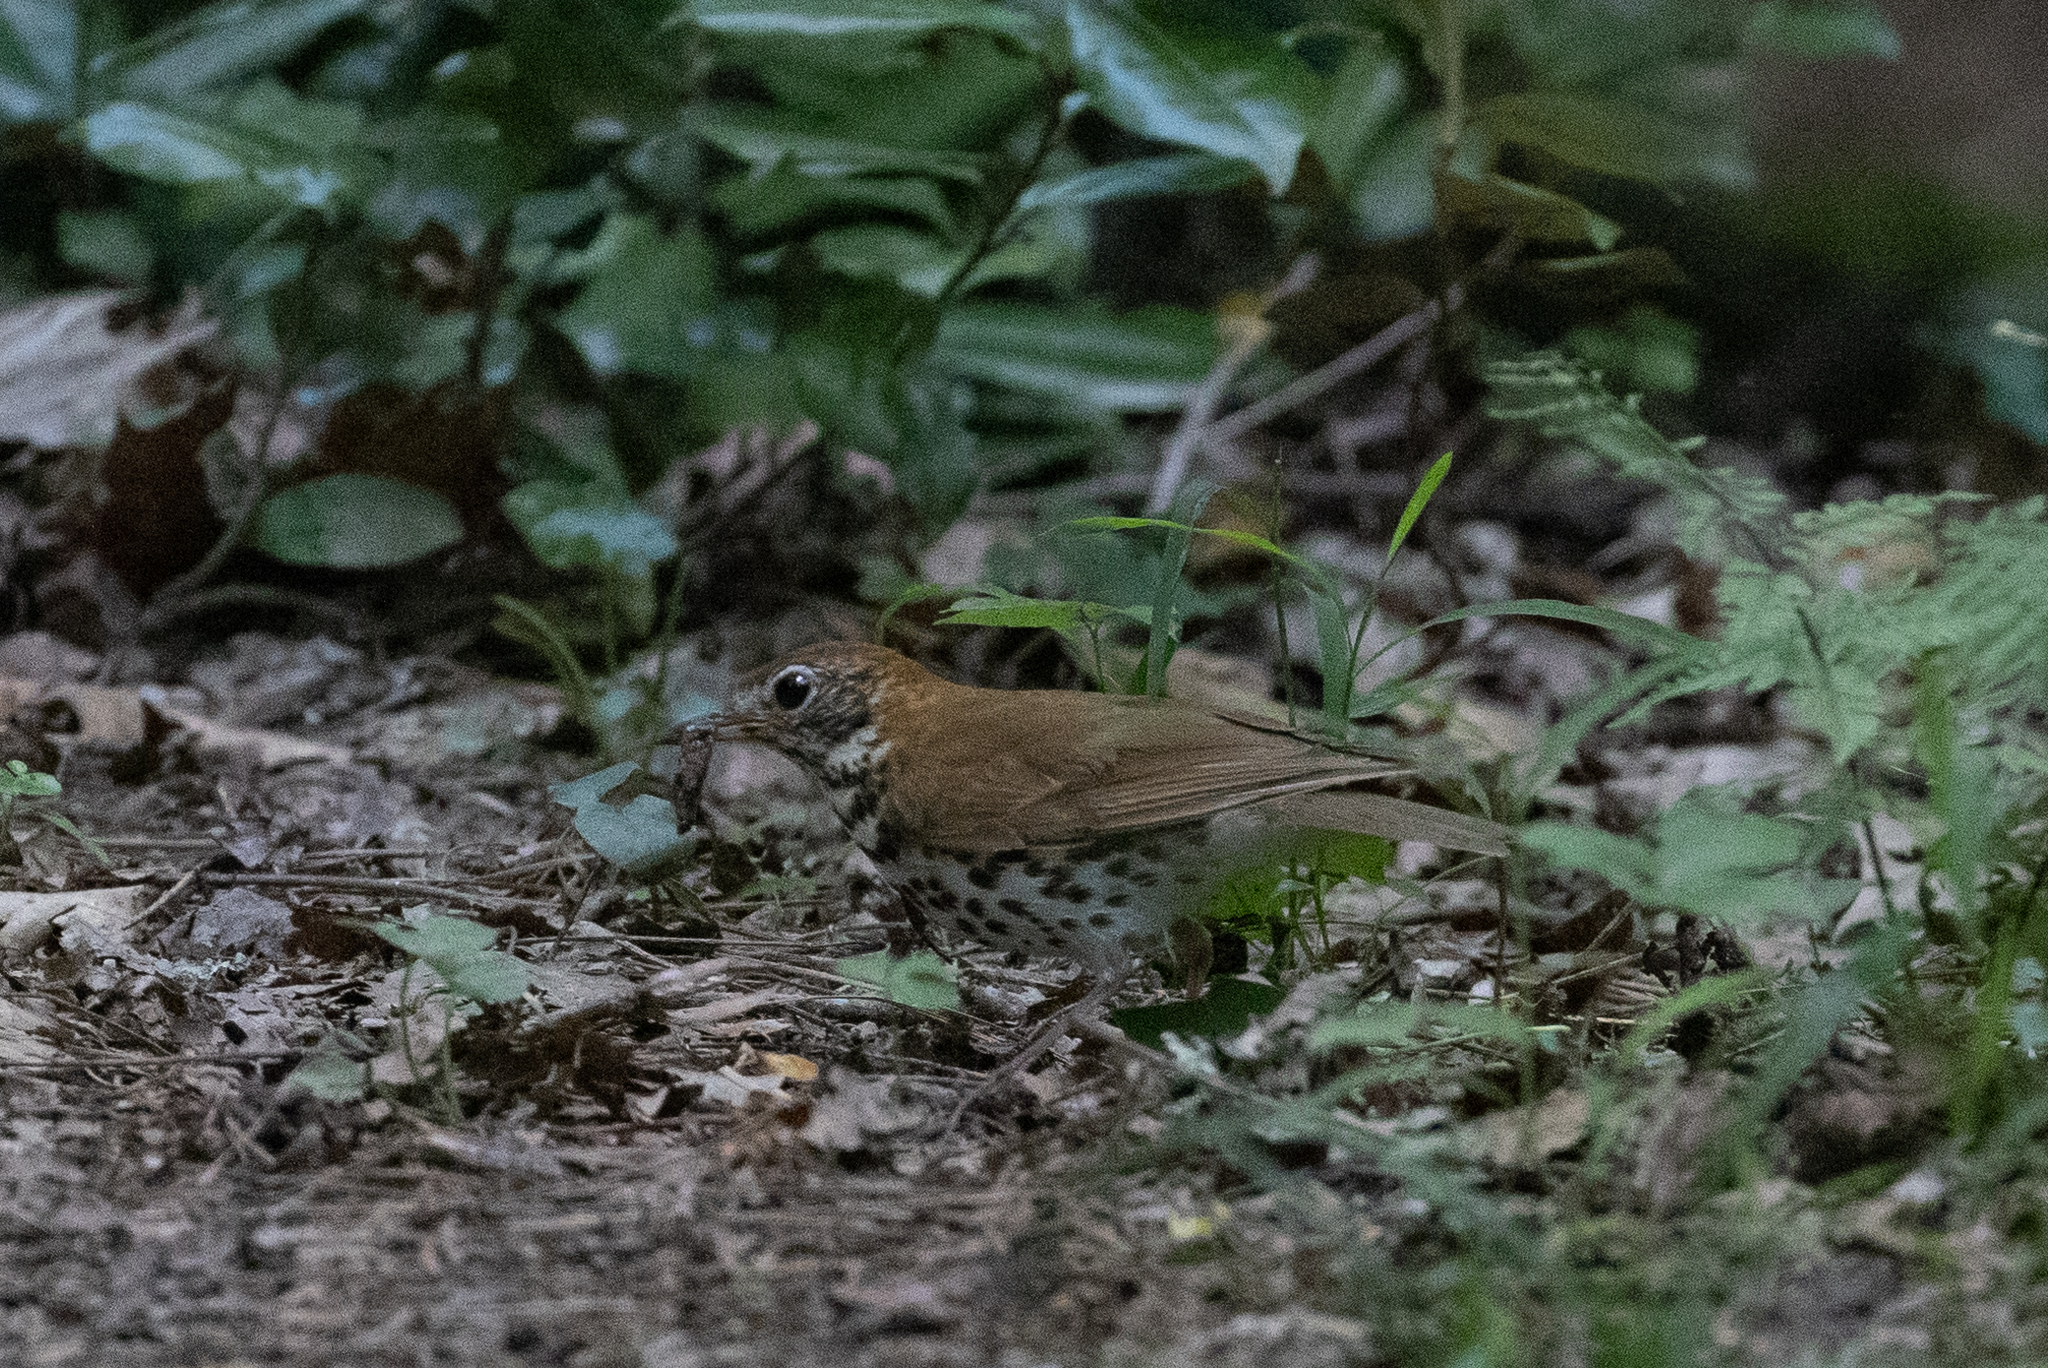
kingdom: Animalia
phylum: Chordata
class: Aves
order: Passeriformes
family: Turdidae
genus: Hylocichla
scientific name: Hylocichla mustelina
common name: Wood thrush
